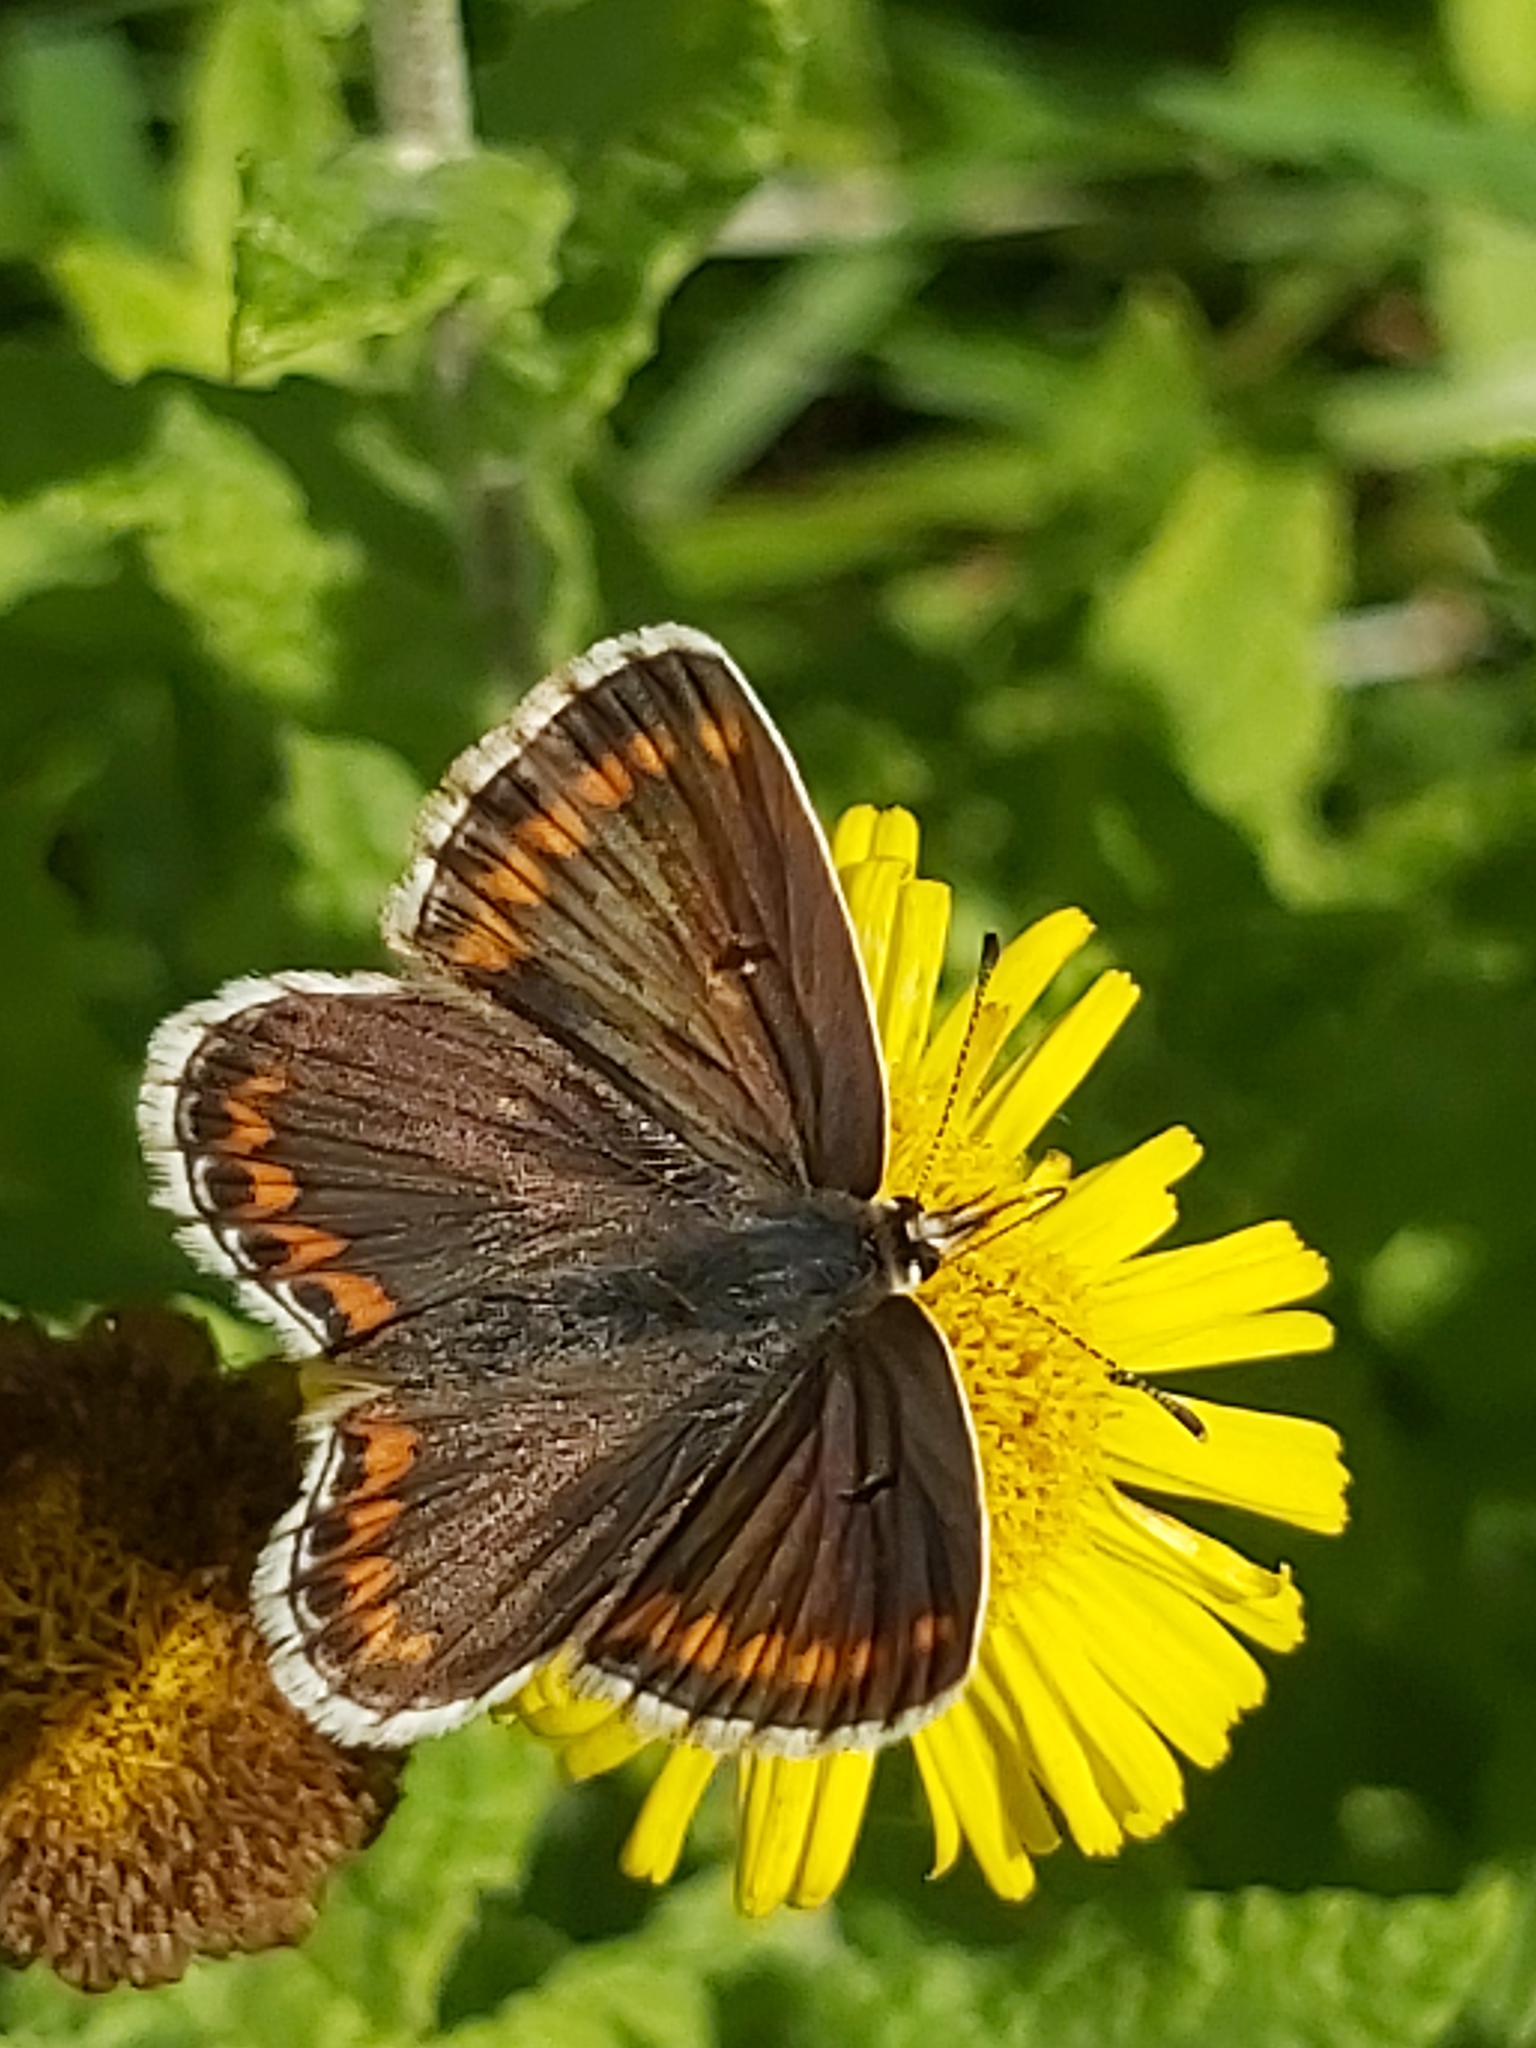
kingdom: Animalia
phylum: Arthropoda
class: Insecta
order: Lepidoptera
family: Lycaenidae
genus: Aricia
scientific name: Aricia agestis
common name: Brown argus
